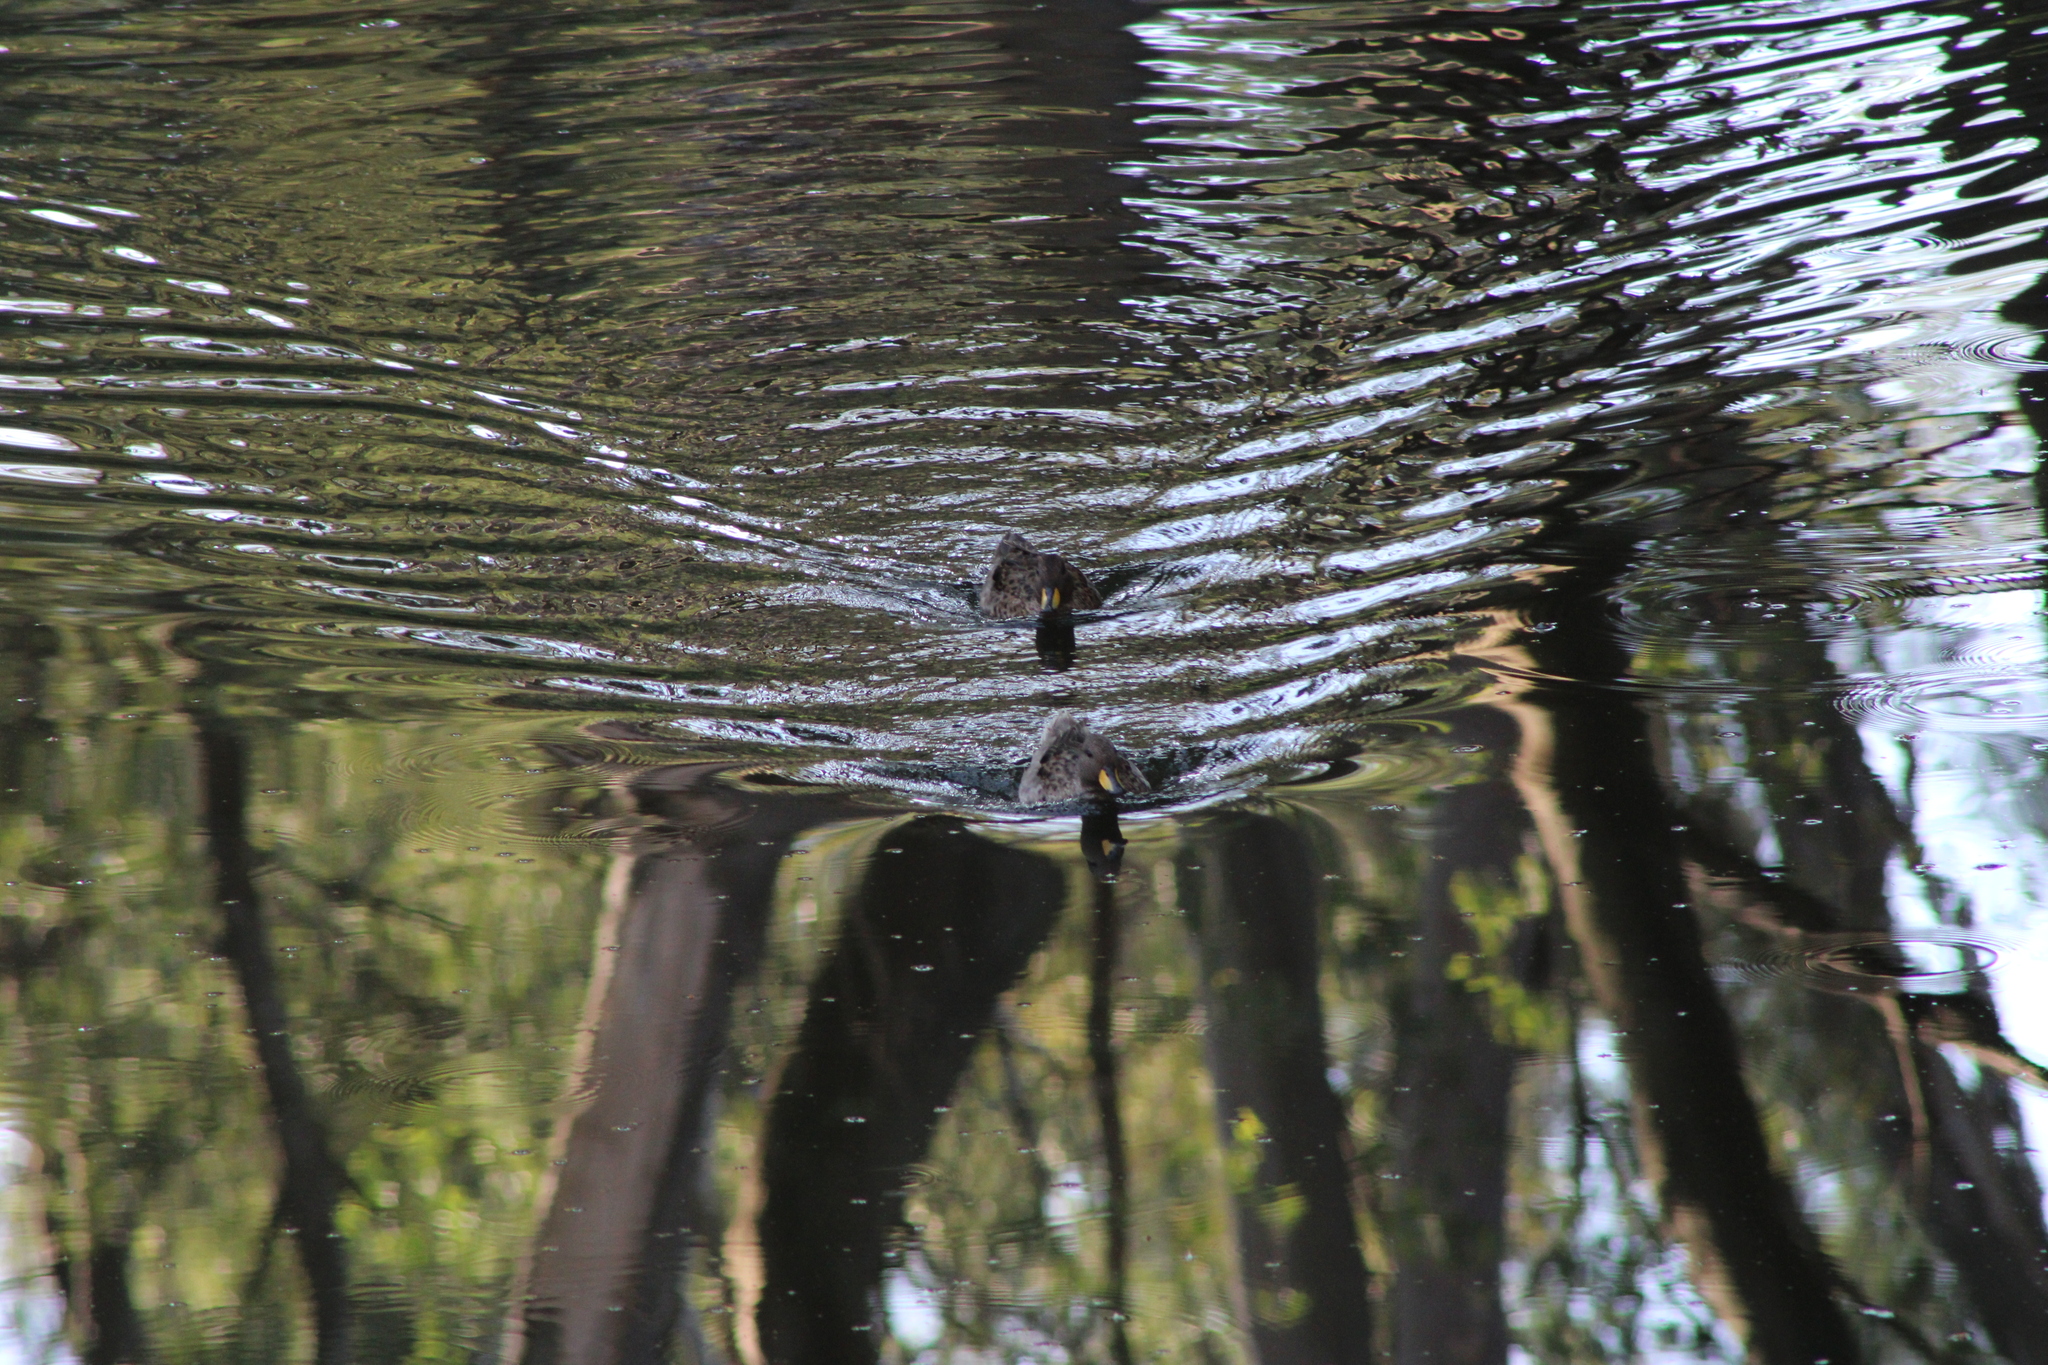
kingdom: Animalia
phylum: Chordata
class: Aves
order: Anseriformes
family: Anatidae
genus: Anas
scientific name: Anas flavirostris
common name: Yellow-billed teal
